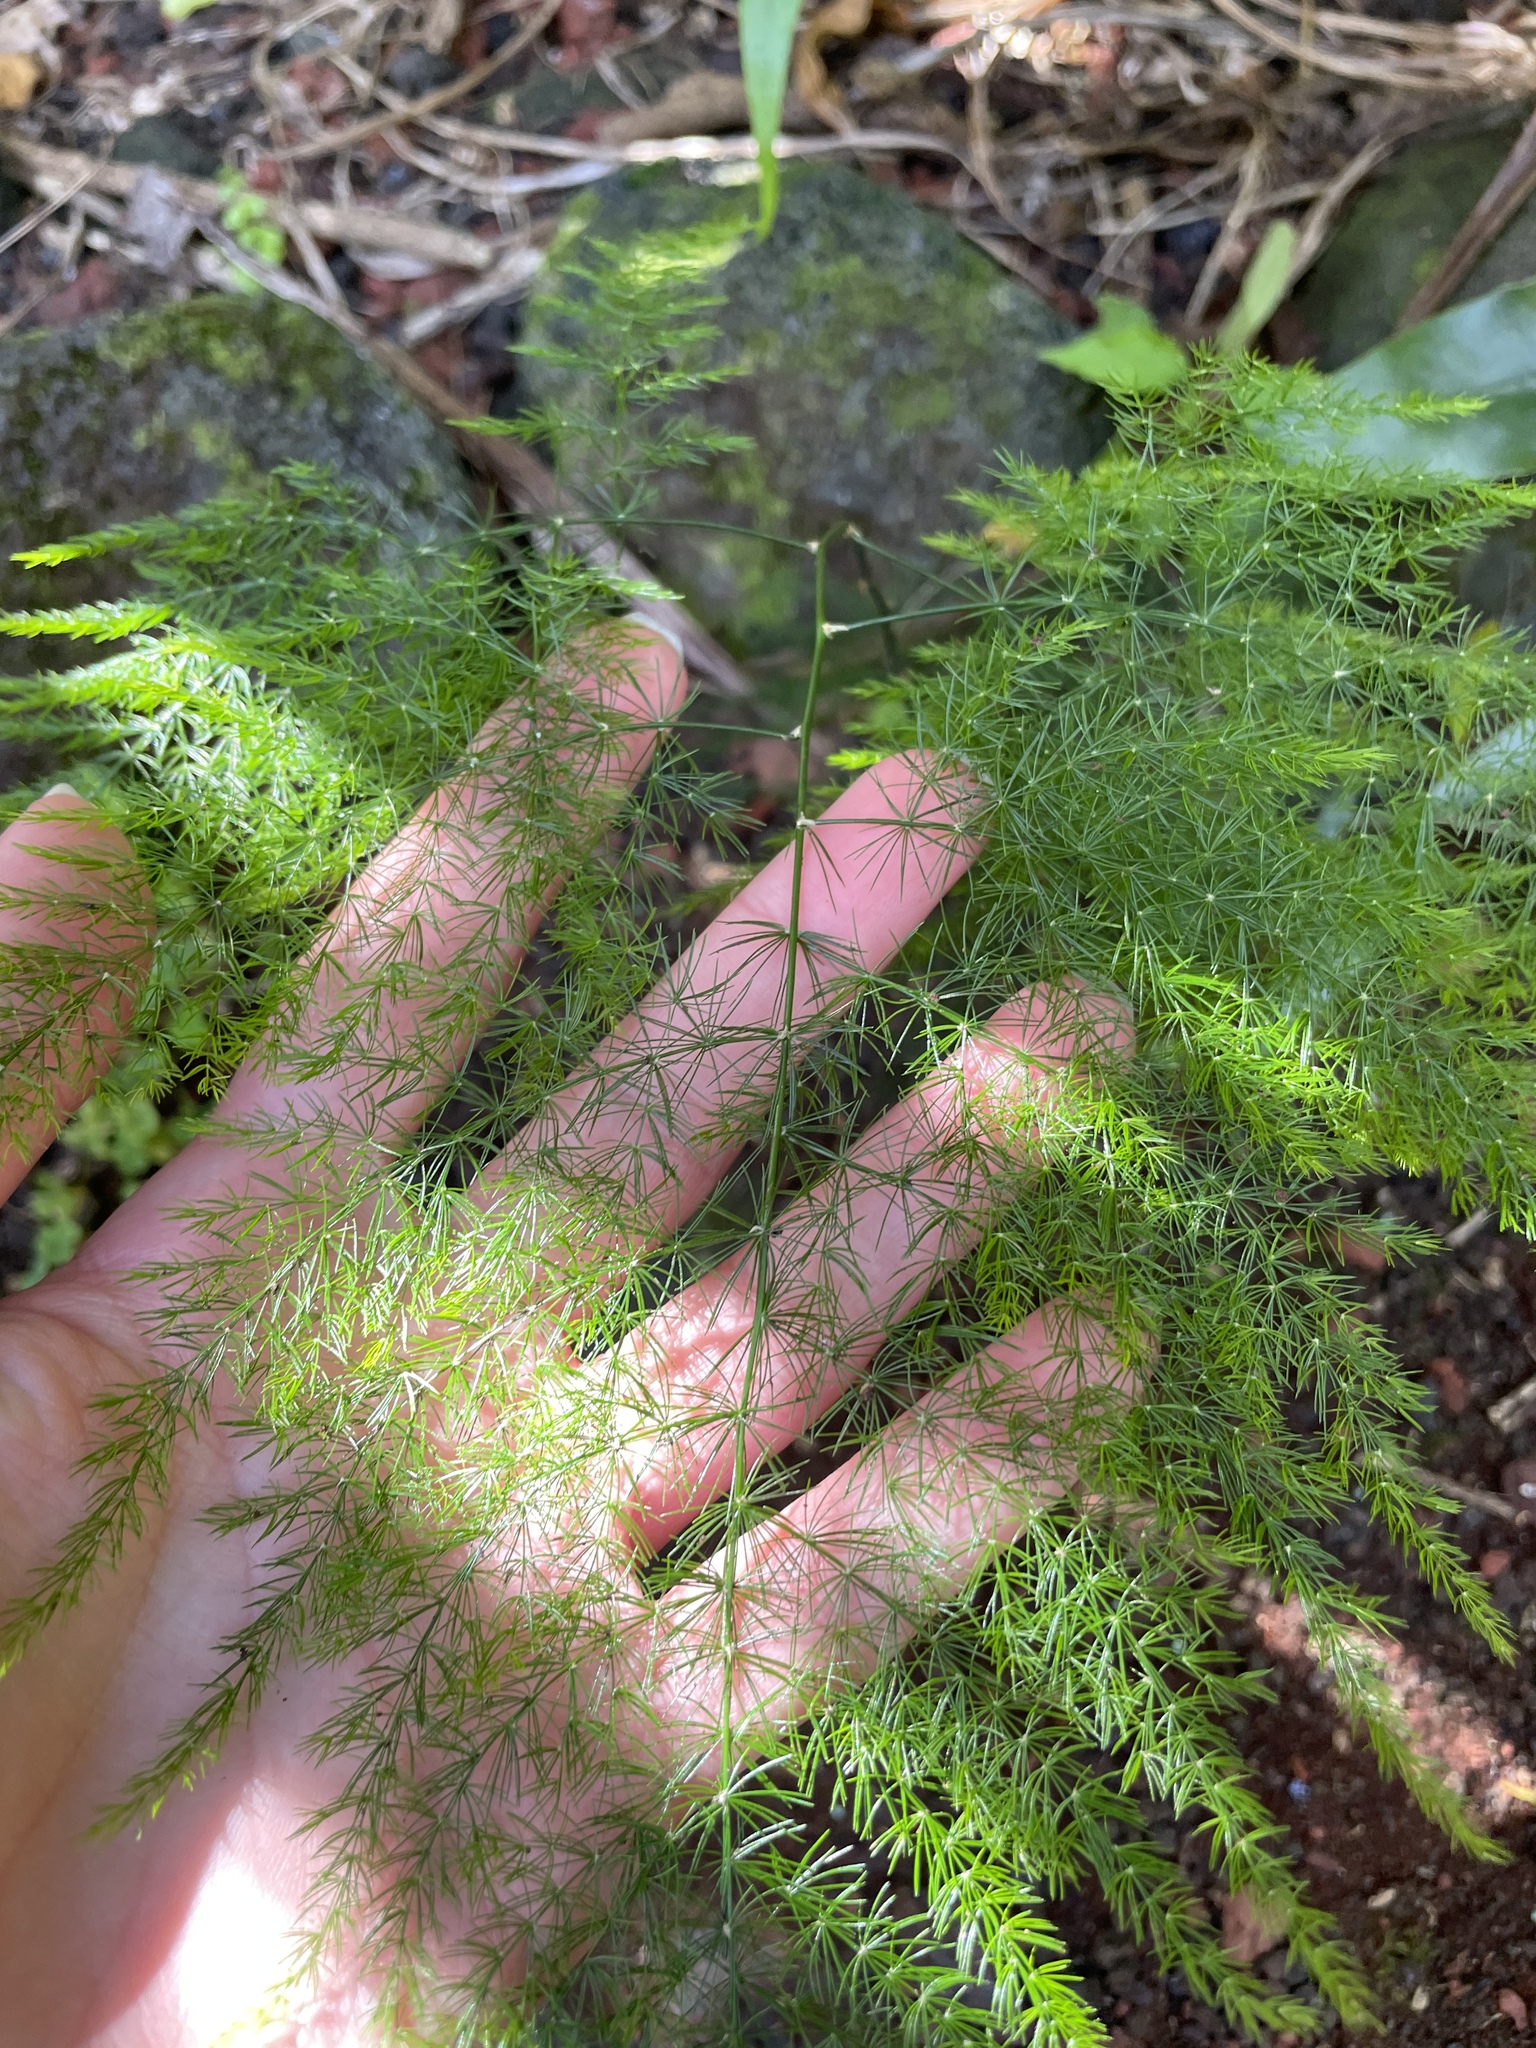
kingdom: Plantae
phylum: Tracheophyta
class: Liliopsida
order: Asparagales
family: Asparagaceae
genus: Asparagus
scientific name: Asparagus setaceus
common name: Common asparagus fern
